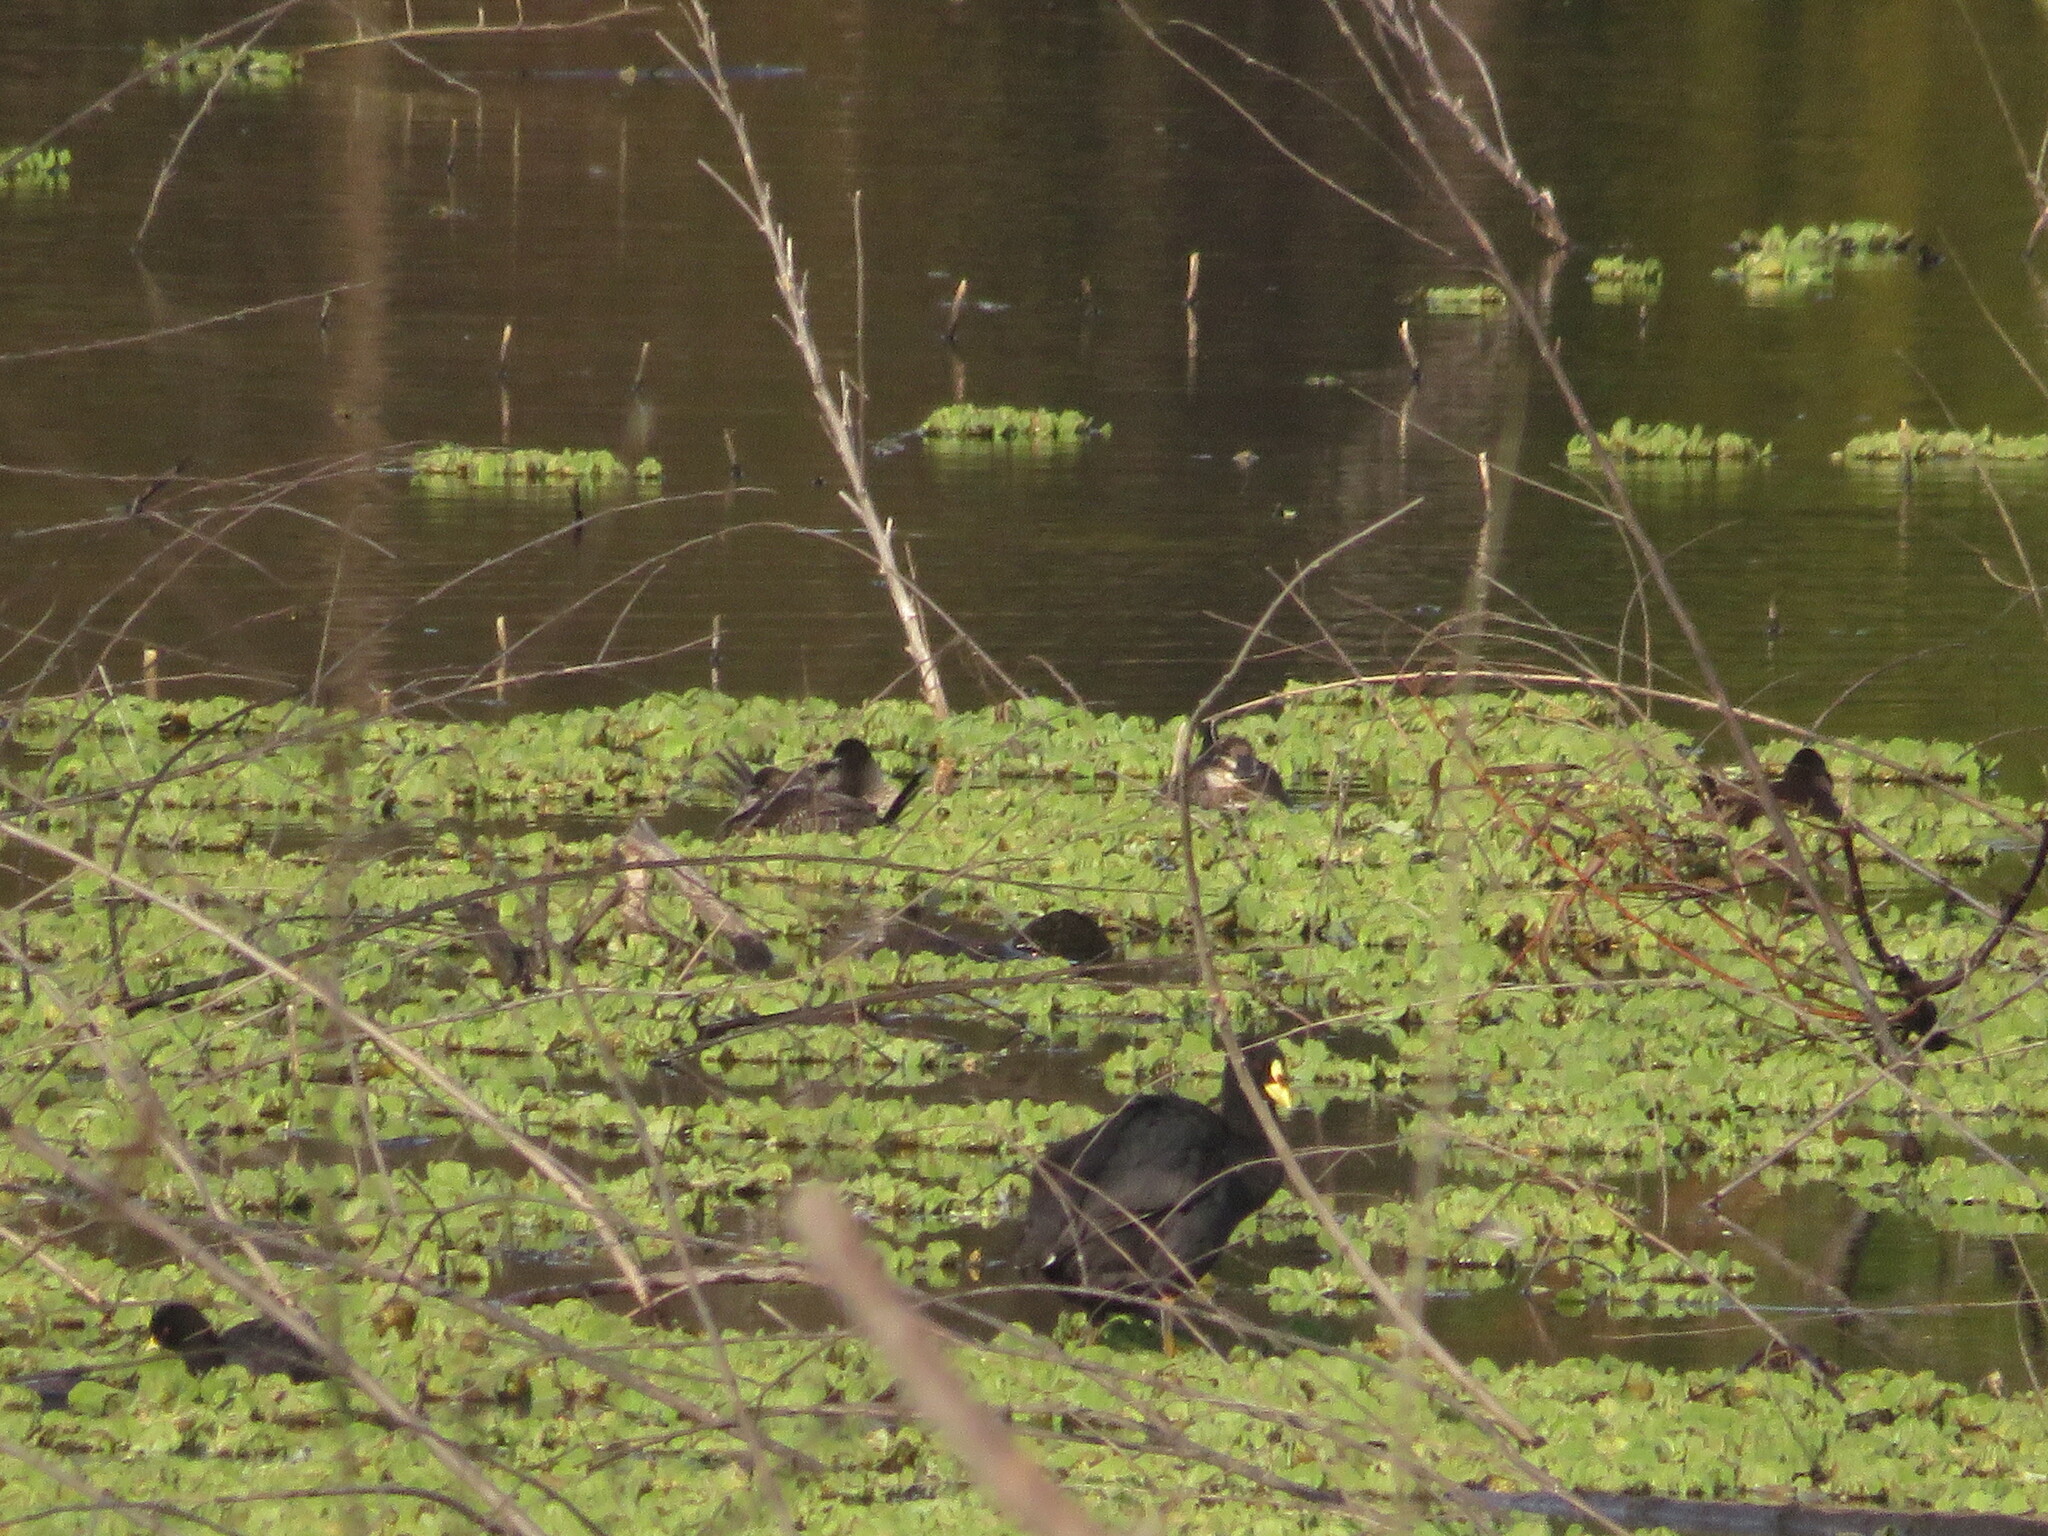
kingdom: Animalia
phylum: Chordata
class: Aves
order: Gruiformes
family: Rallidae
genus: Fulica
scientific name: Fulica armillata
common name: Red-gartered coot
